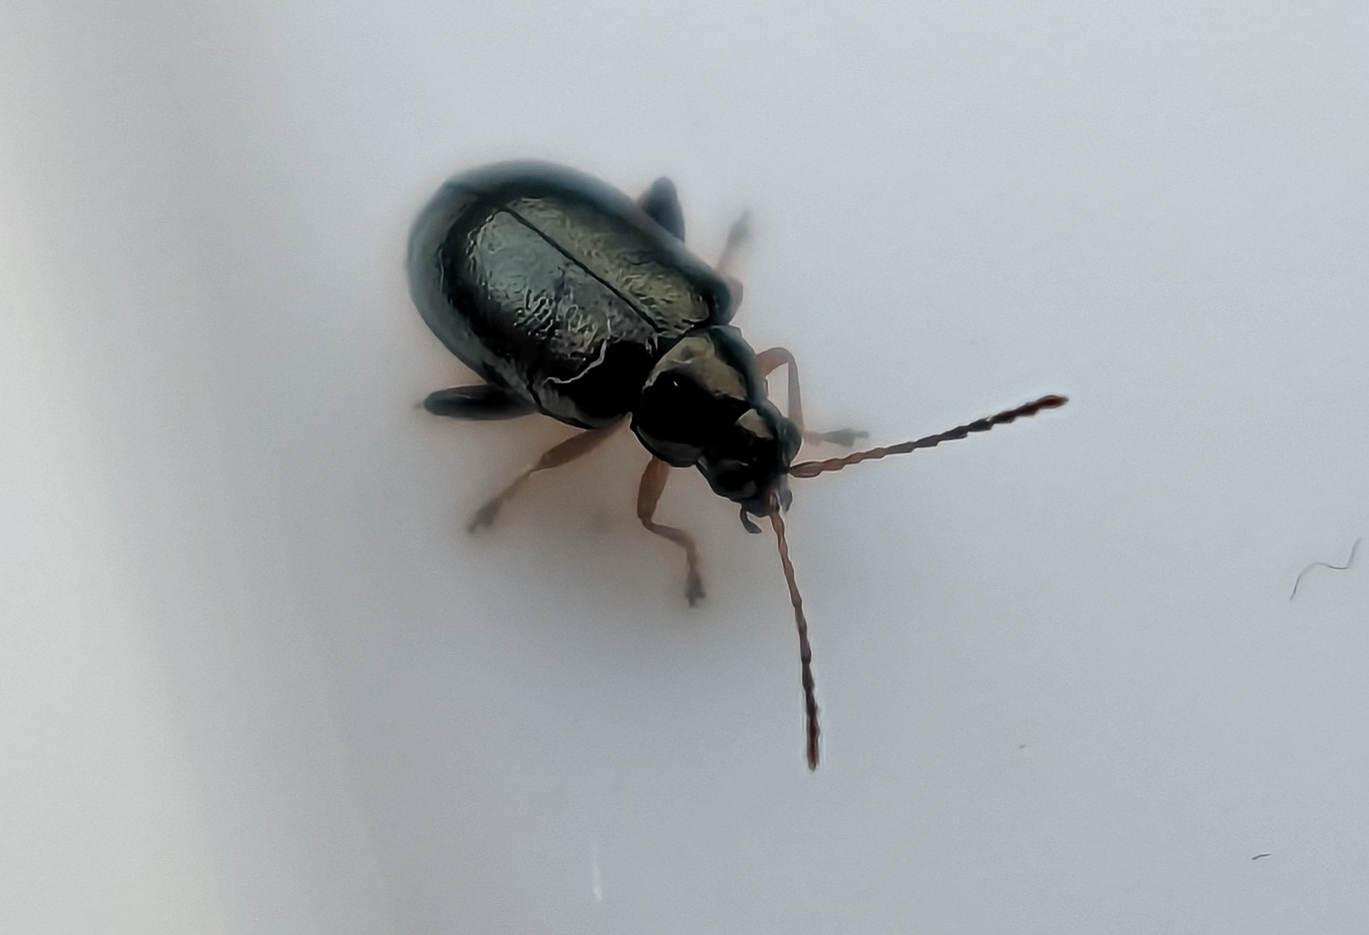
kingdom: Animalia
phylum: Arthropoda
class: Insecta
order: Coleoptera
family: Chrysomelidae
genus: Aphthona
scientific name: Aphthona euphorbiae
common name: Large flax flea beetle
